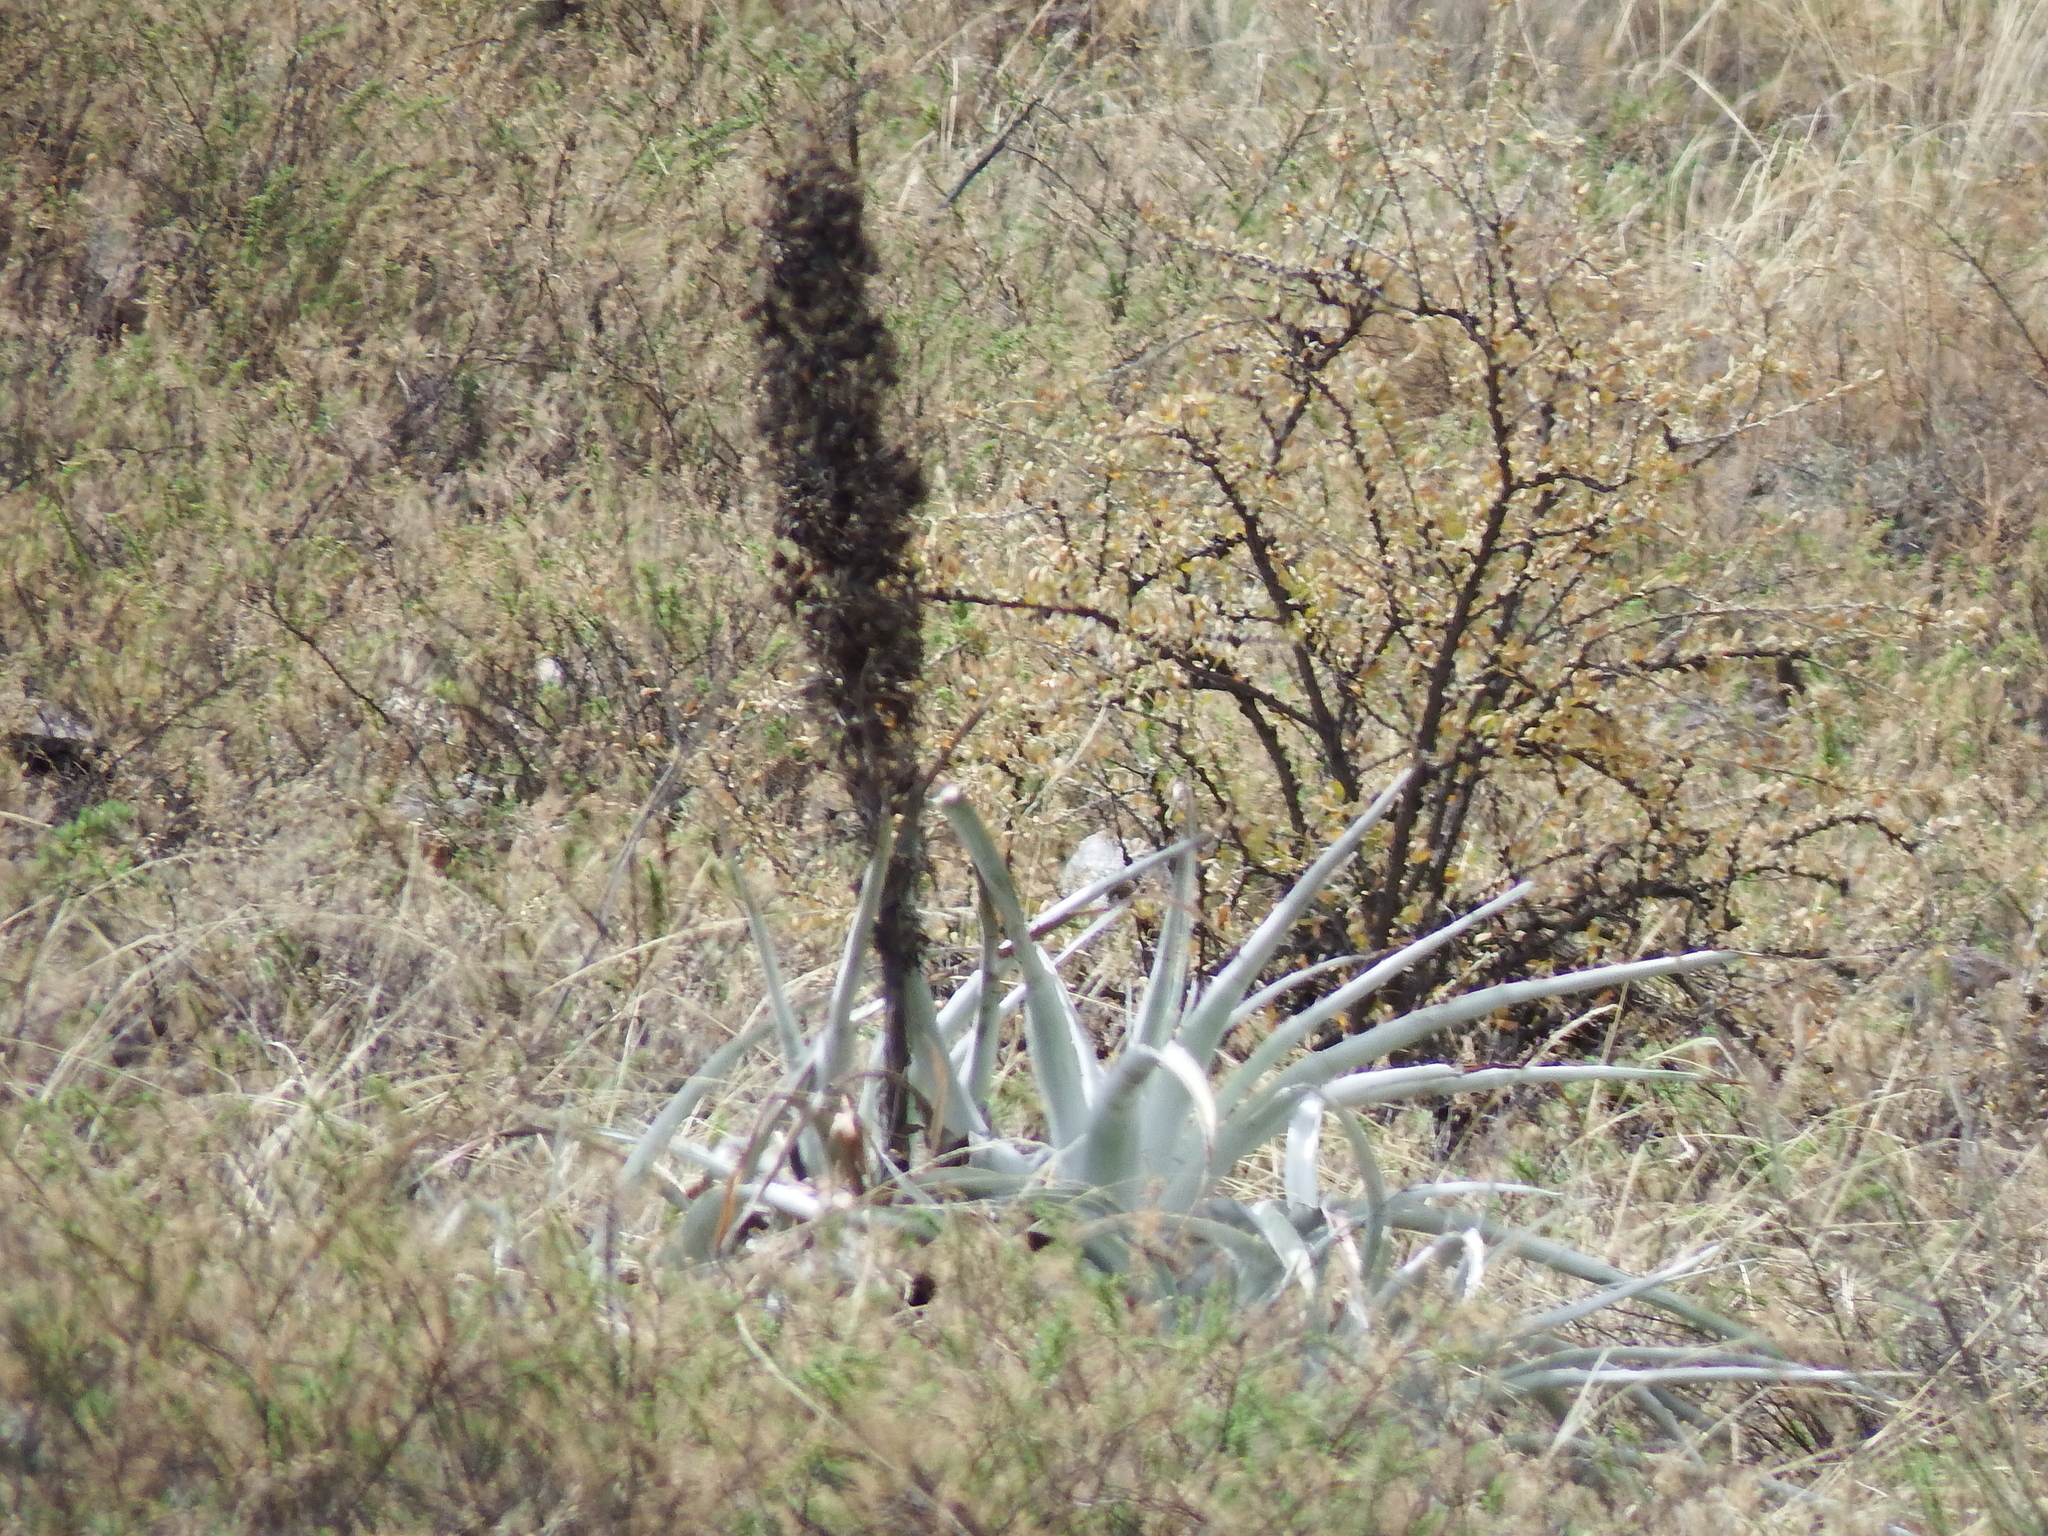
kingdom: Plantae
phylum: Tracheophyta
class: Liliopsida
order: Poales
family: Bromeliaceae
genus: Puya
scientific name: Puya cylindrica
